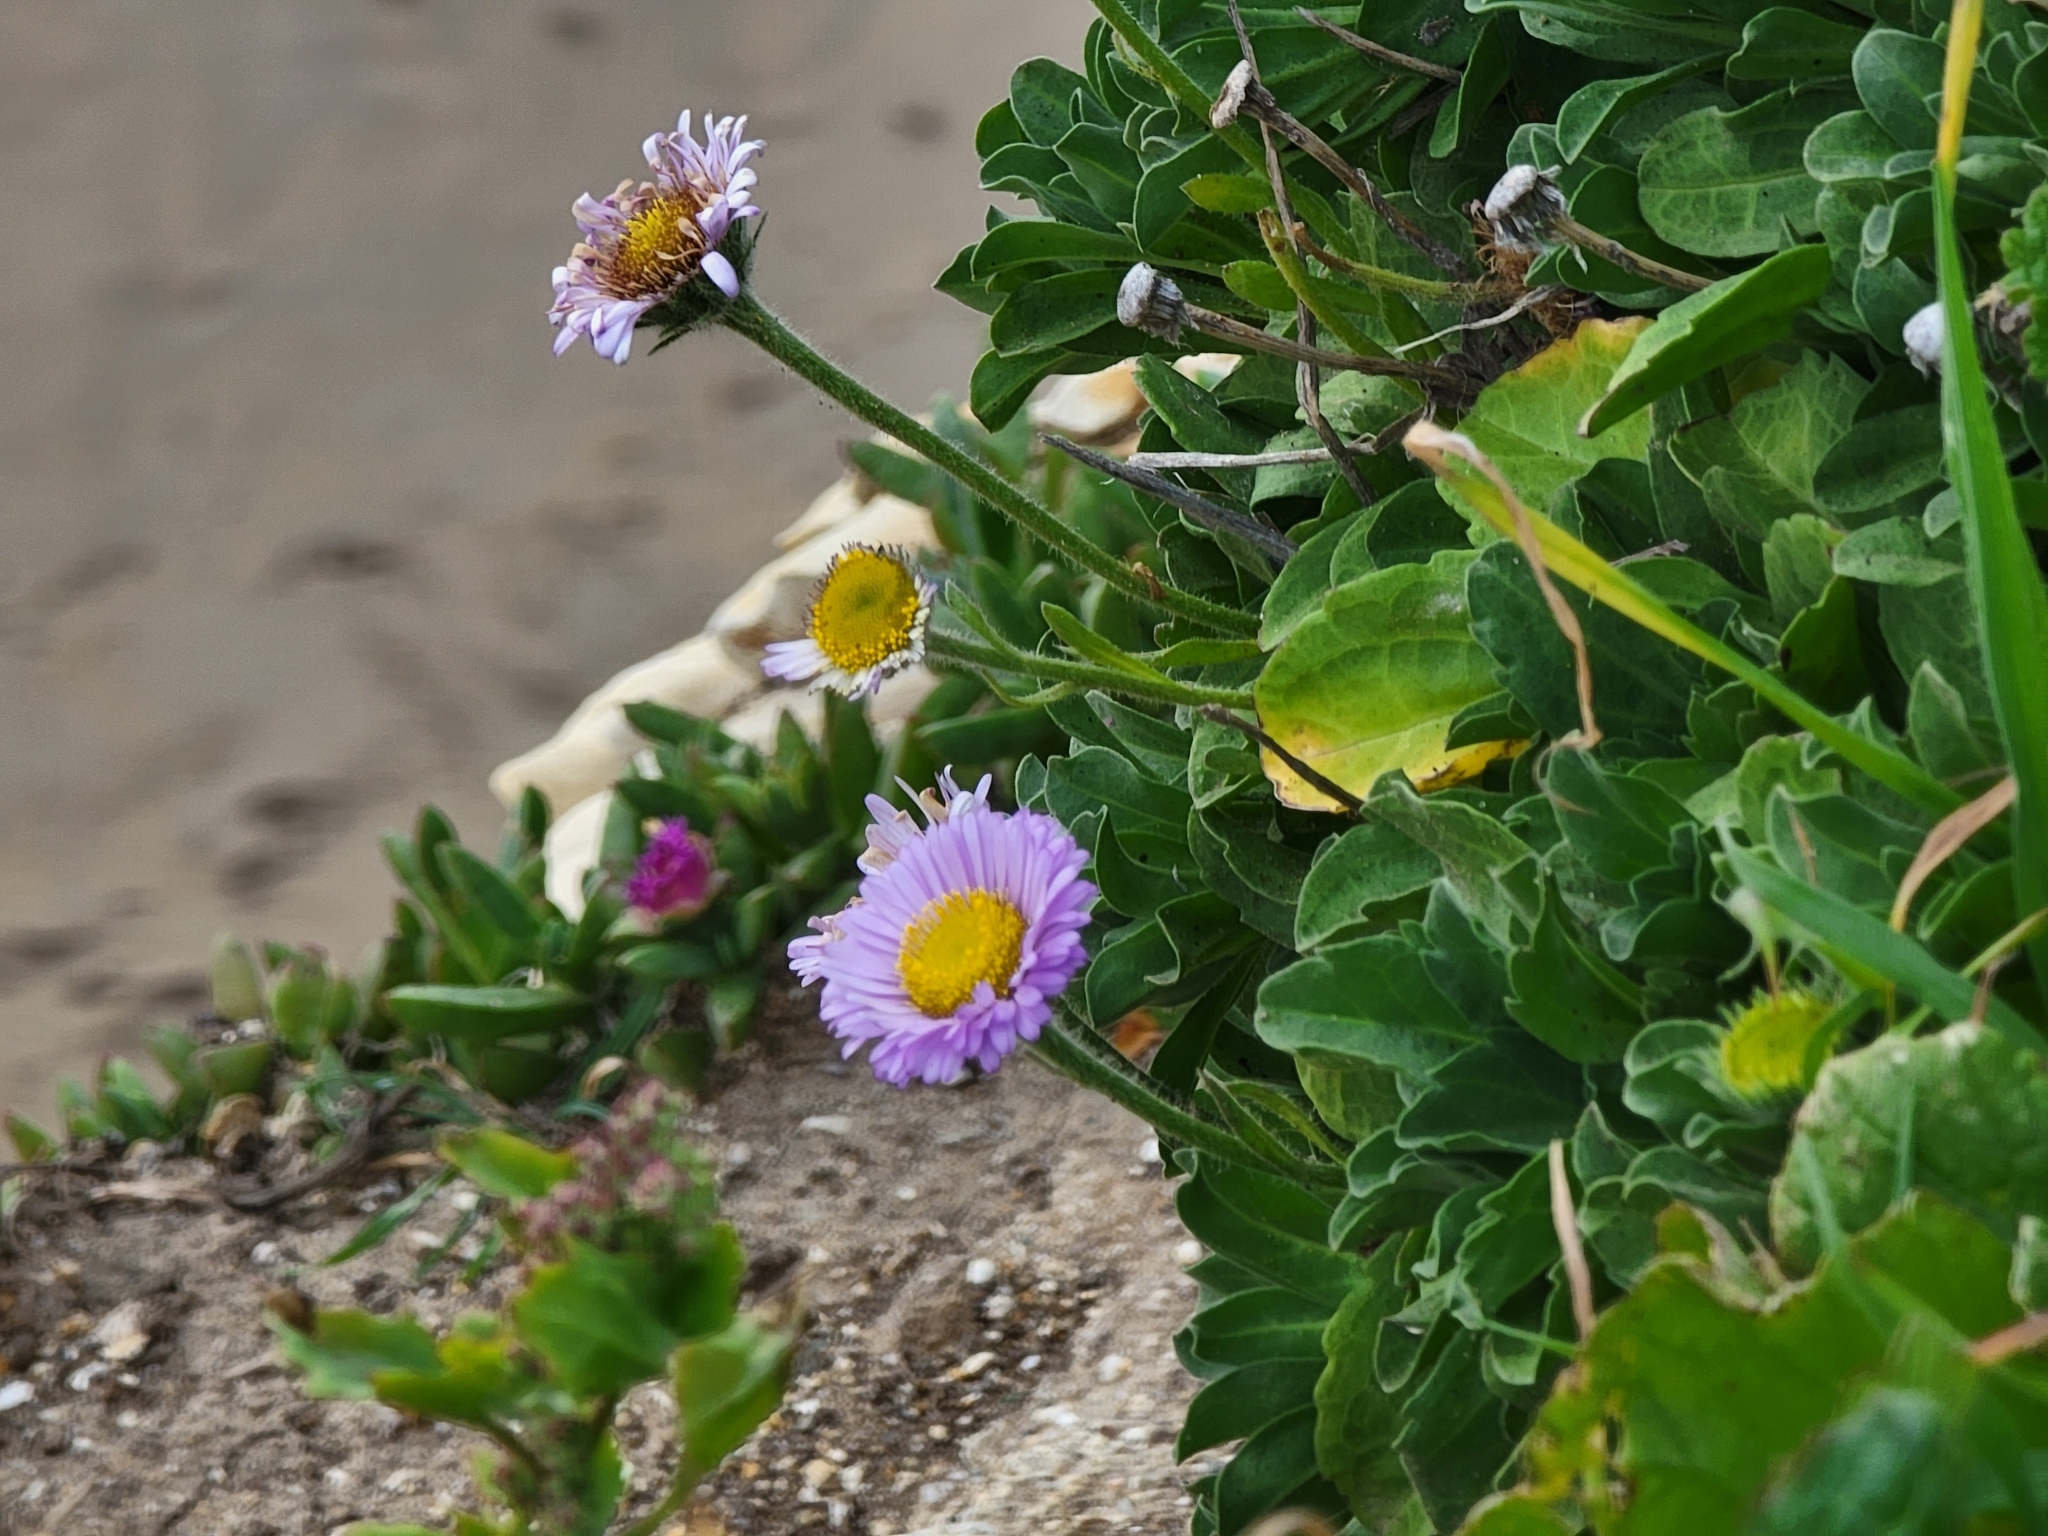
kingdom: Plantae
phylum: Tracheophyta
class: Magnoliopsida
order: Asterales
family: Asteraceae
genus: Erigeron
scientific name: Erigeron glaucus
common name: Seaside daisy
